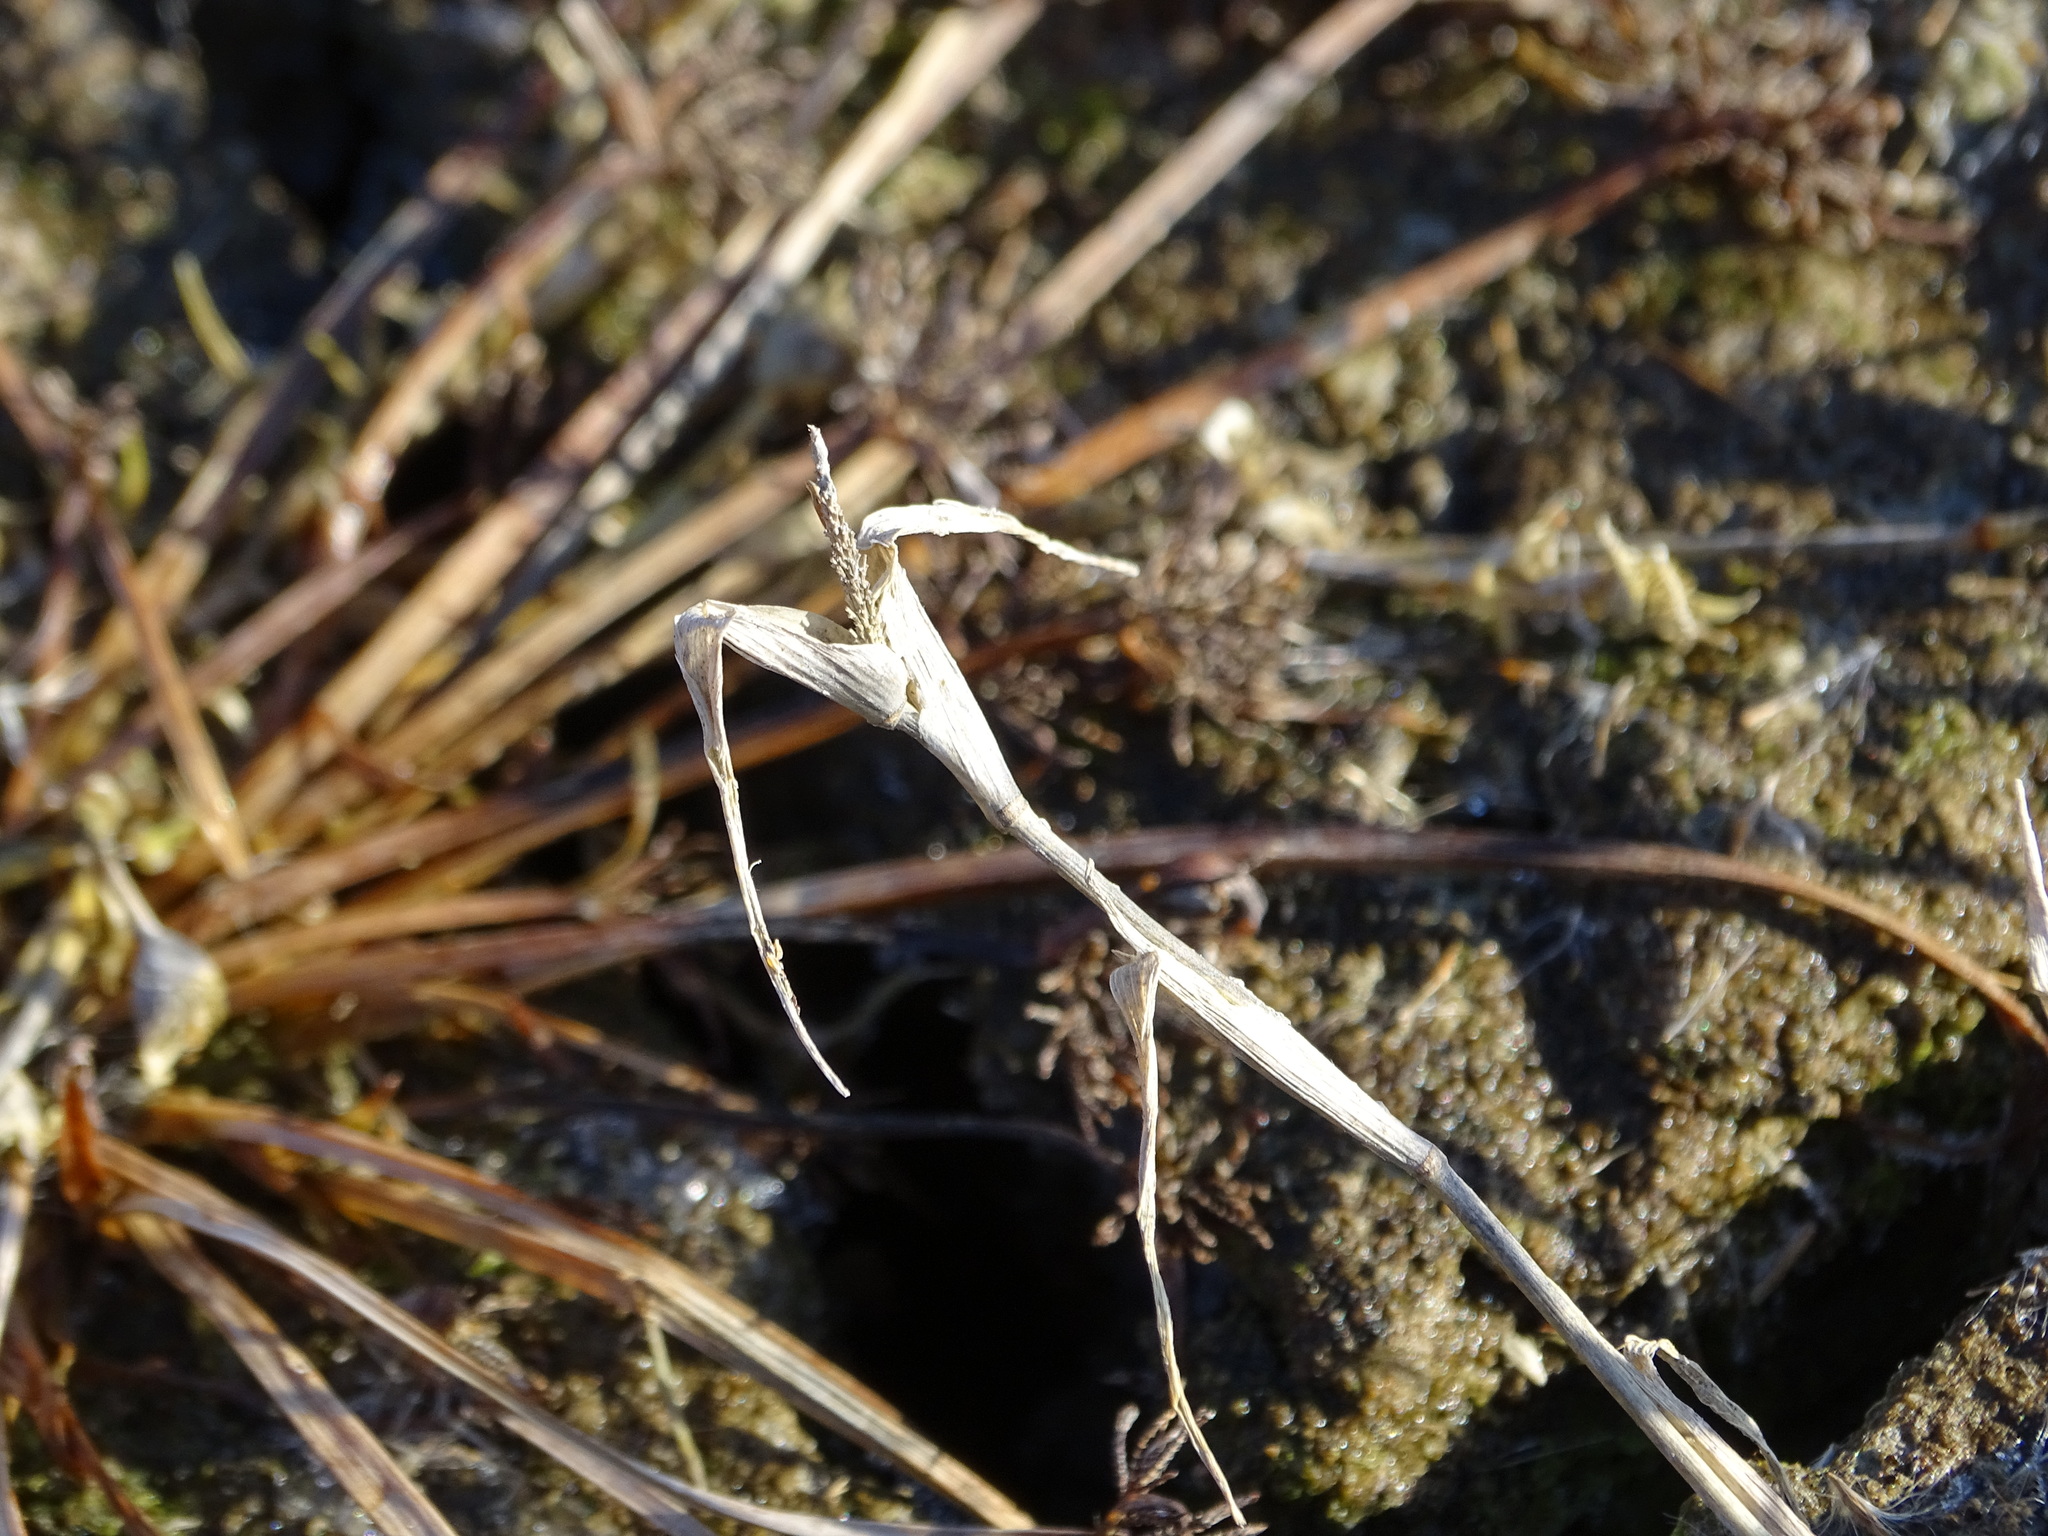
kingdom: Plantae
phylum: Tracheophyta
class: Liliopsida
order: Poales
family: Poaceae
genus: Sporobolus
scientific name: Sporobolus aculeatus
